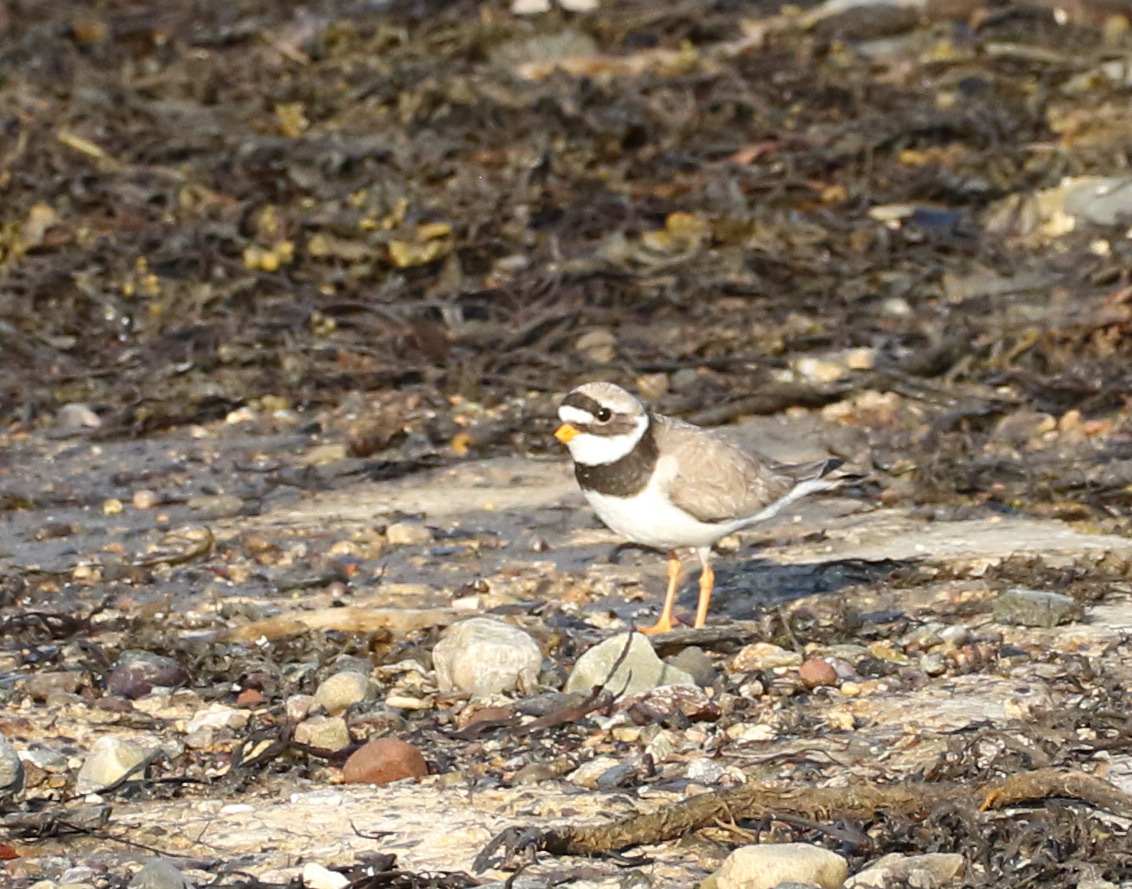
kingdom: Animalia
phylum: Chordata
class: Aves
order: Charadriiformes
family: Charadriidae
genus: Charadrius
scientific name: Charadrius hiaticula
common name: Common ringed plover
